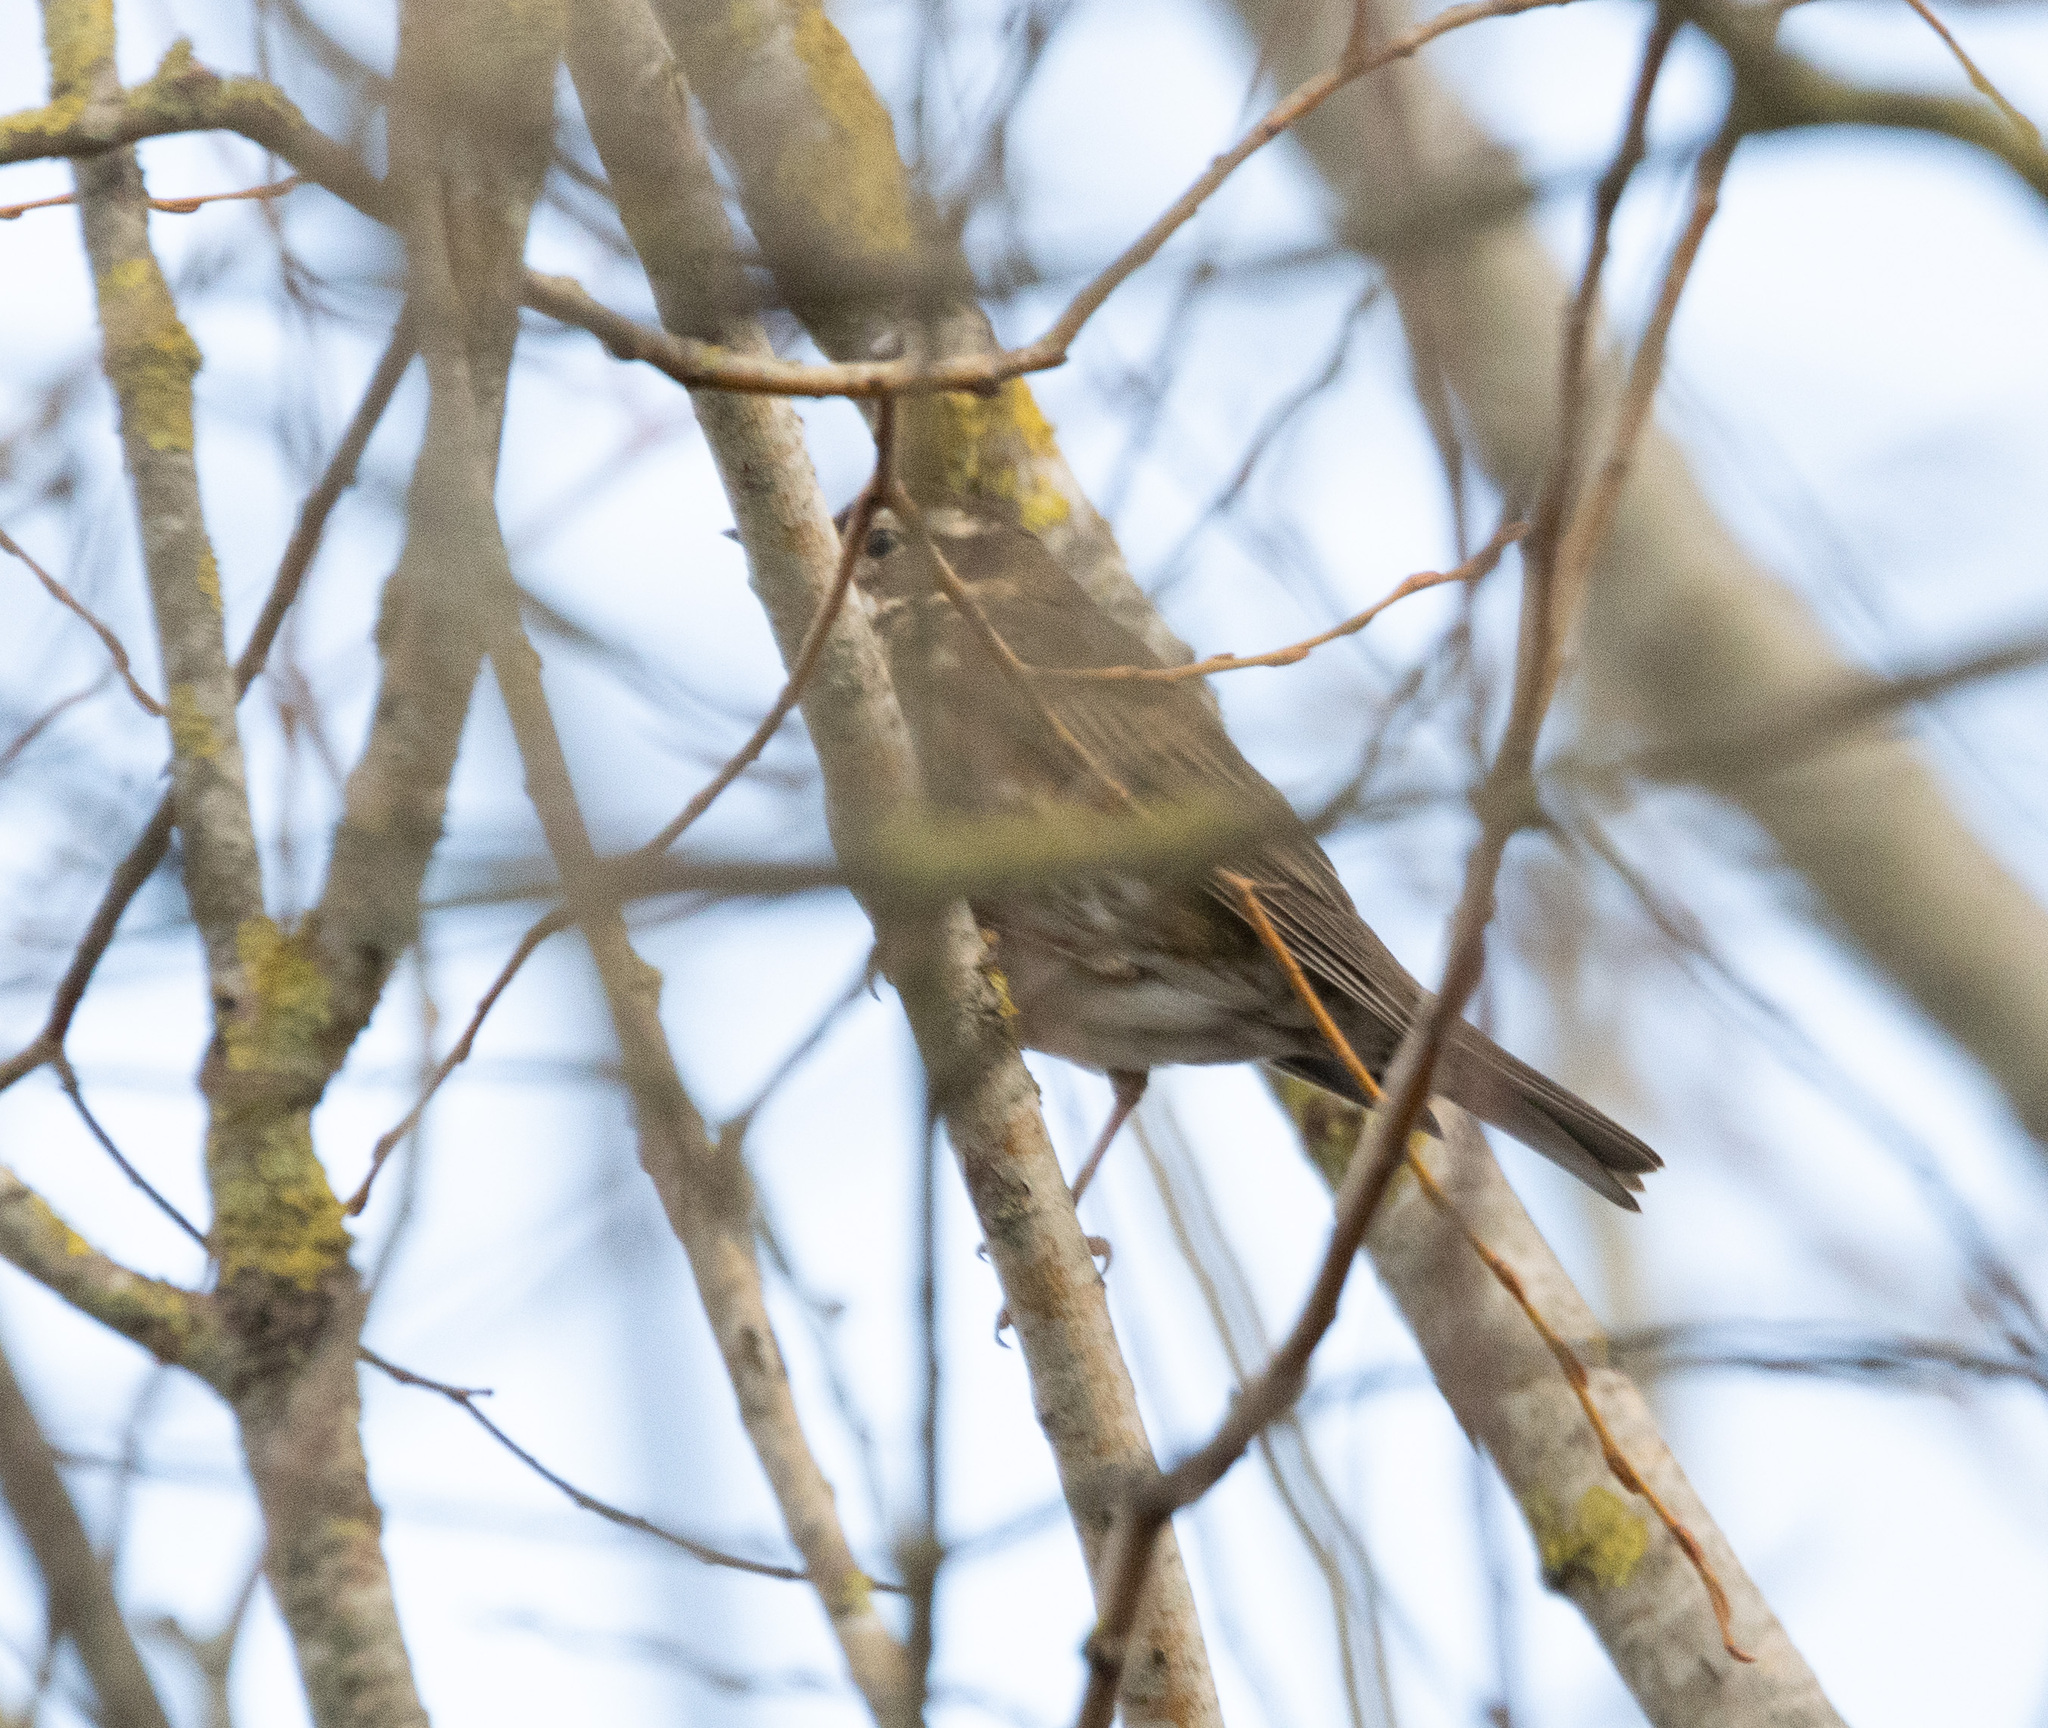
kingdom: Animalia
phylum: Chordata
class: Aves
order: Passeriformes
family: Turdidae
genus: Turdus
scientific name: Turdus iliacus
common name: Redwing
